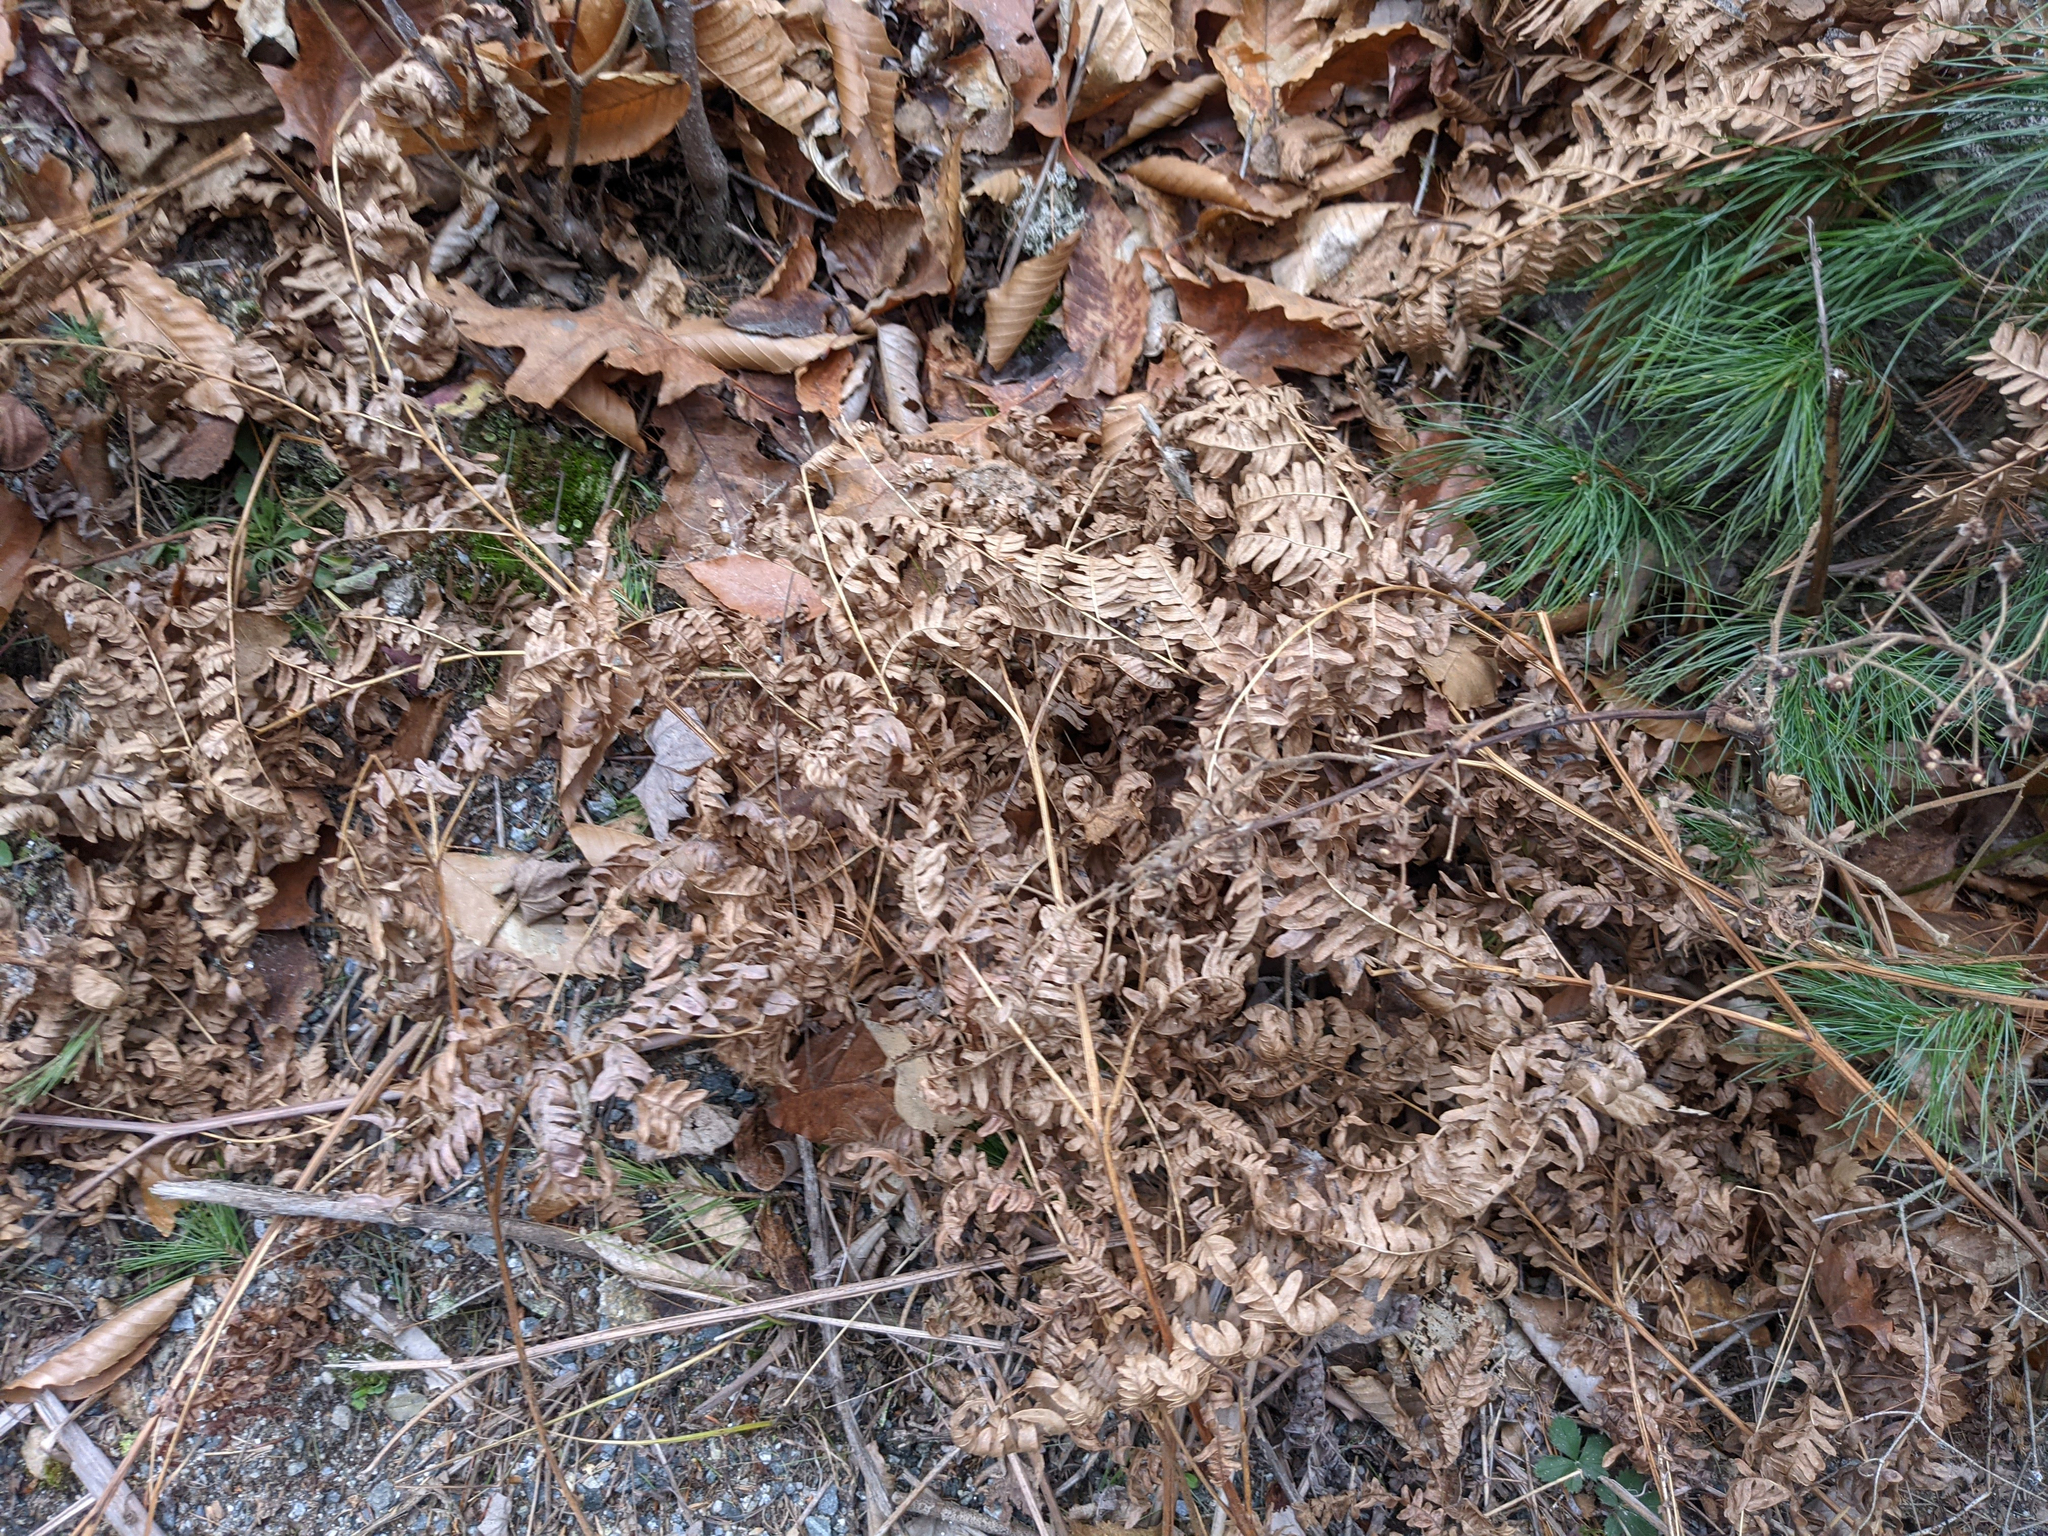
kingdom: Plantae
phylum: Tracheophyta
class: Polypodiopsida
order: Polypodiales
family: Dennstaedtiaceae
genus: Pteridium
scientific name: Pteridium aquilinum
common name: Bracken
